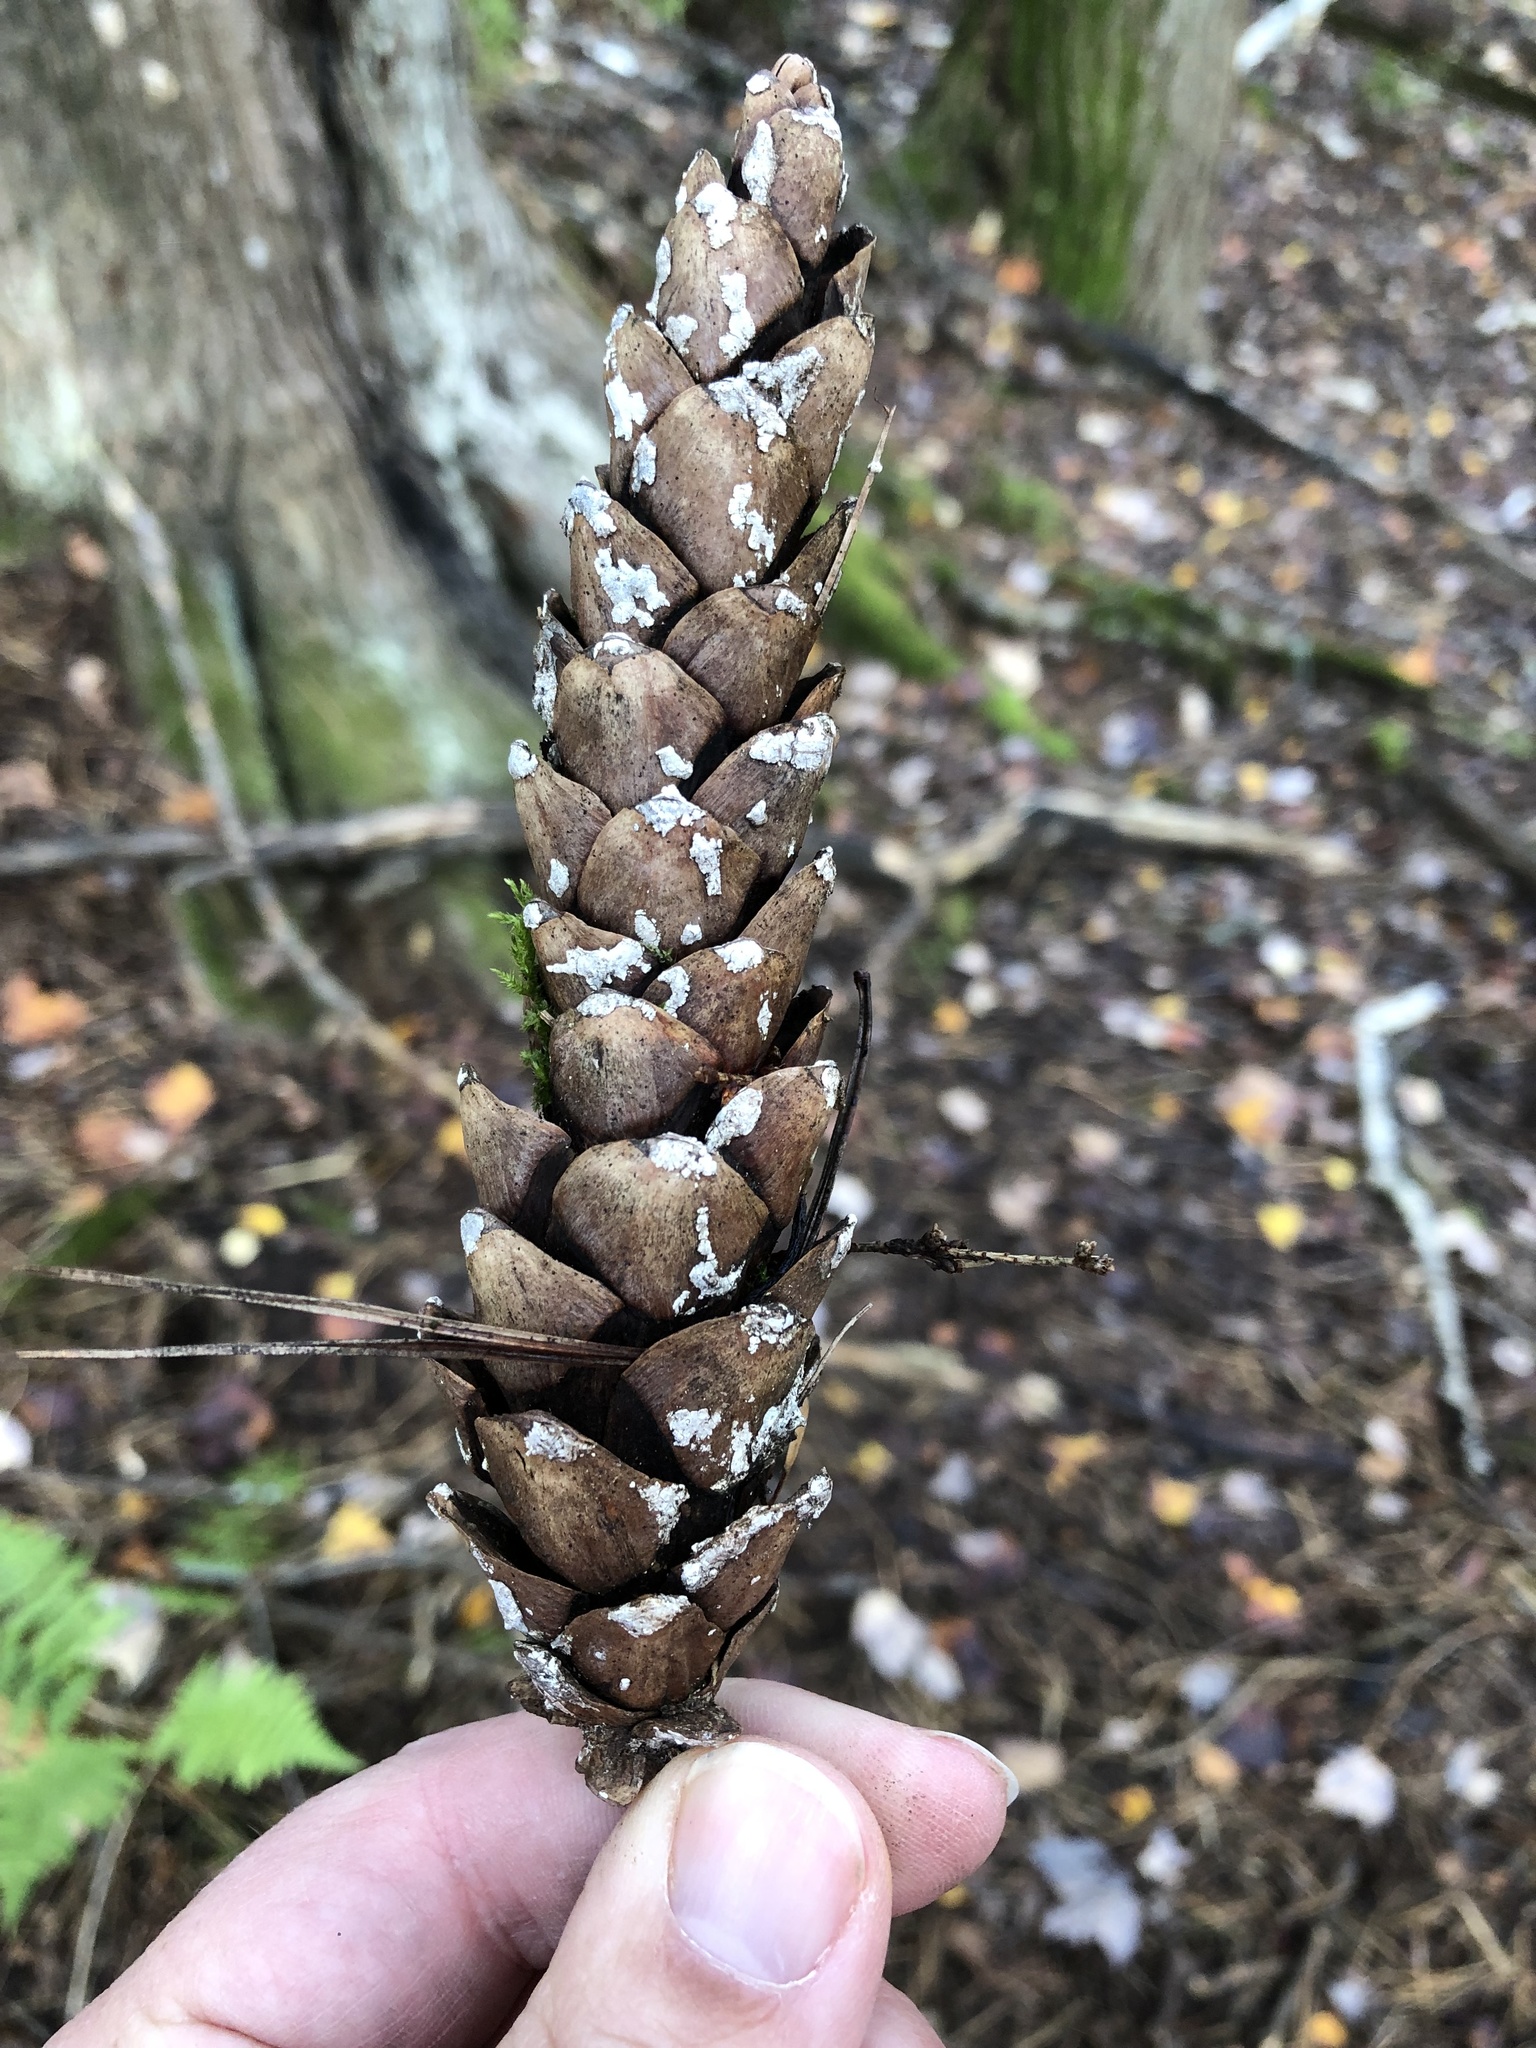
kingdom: Plantae
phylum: Tracheophyta
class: Pinopsida
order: Pinales
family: Pinaceae
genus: Pinus
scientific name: Pinus strobus
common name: Weymouth pine
